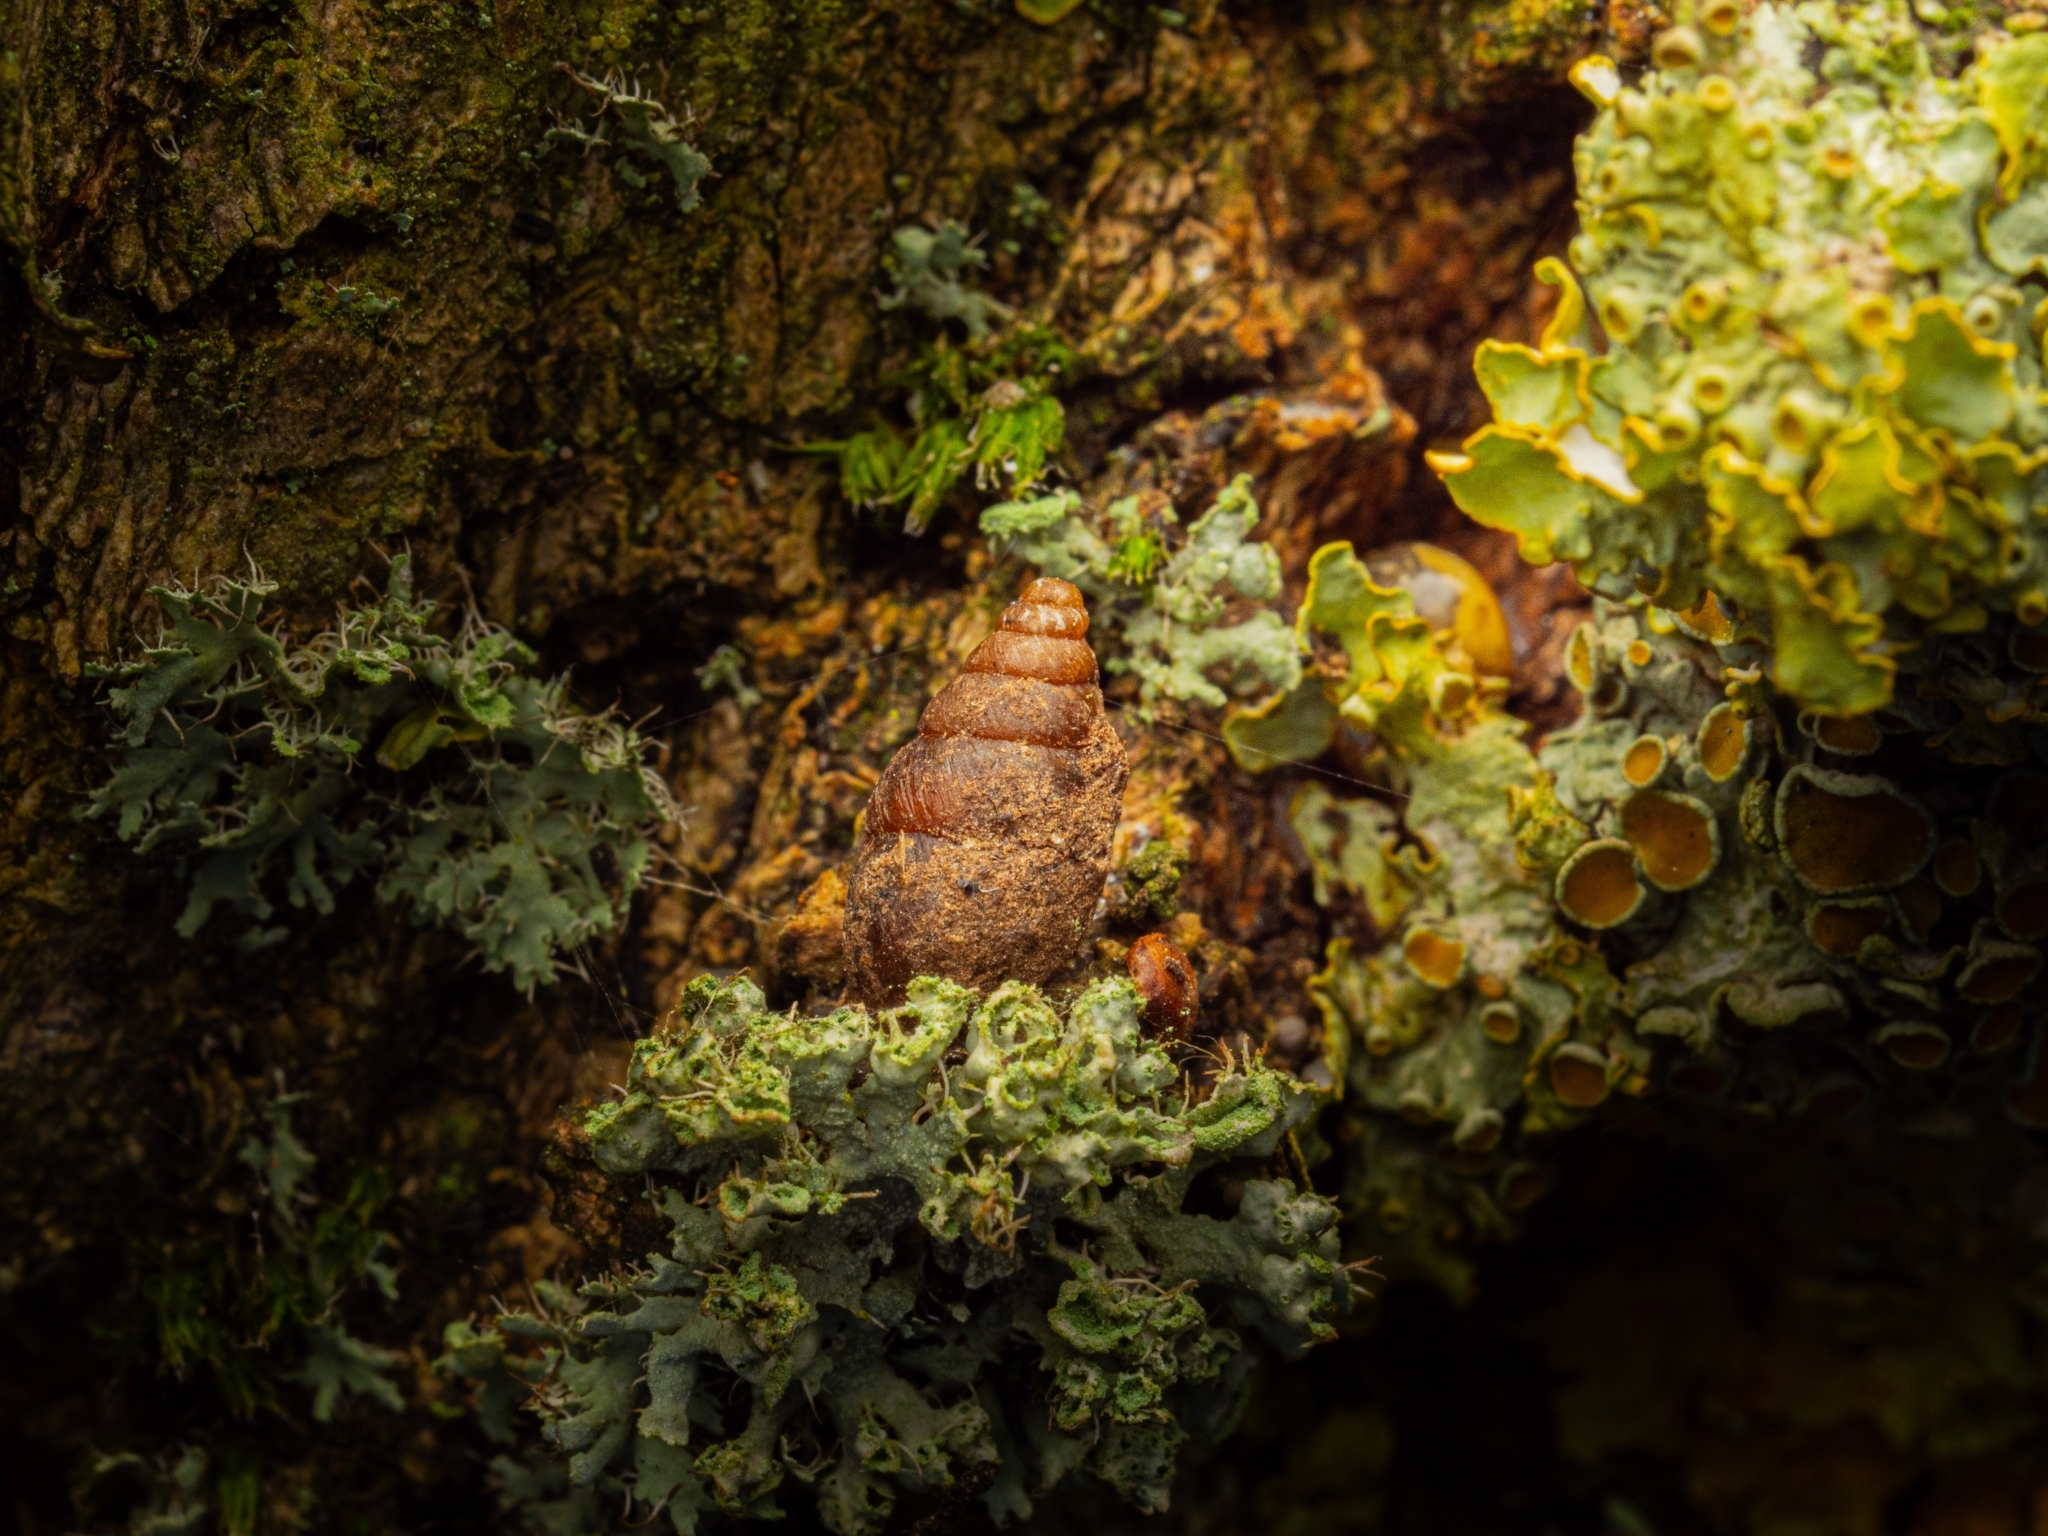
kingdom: Animalia
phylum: Mollusca
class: Gastropoda
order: Stylommatophora
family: Enidae
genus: Merdigera
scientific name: Merdigera obscura
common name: Lesser bulin
